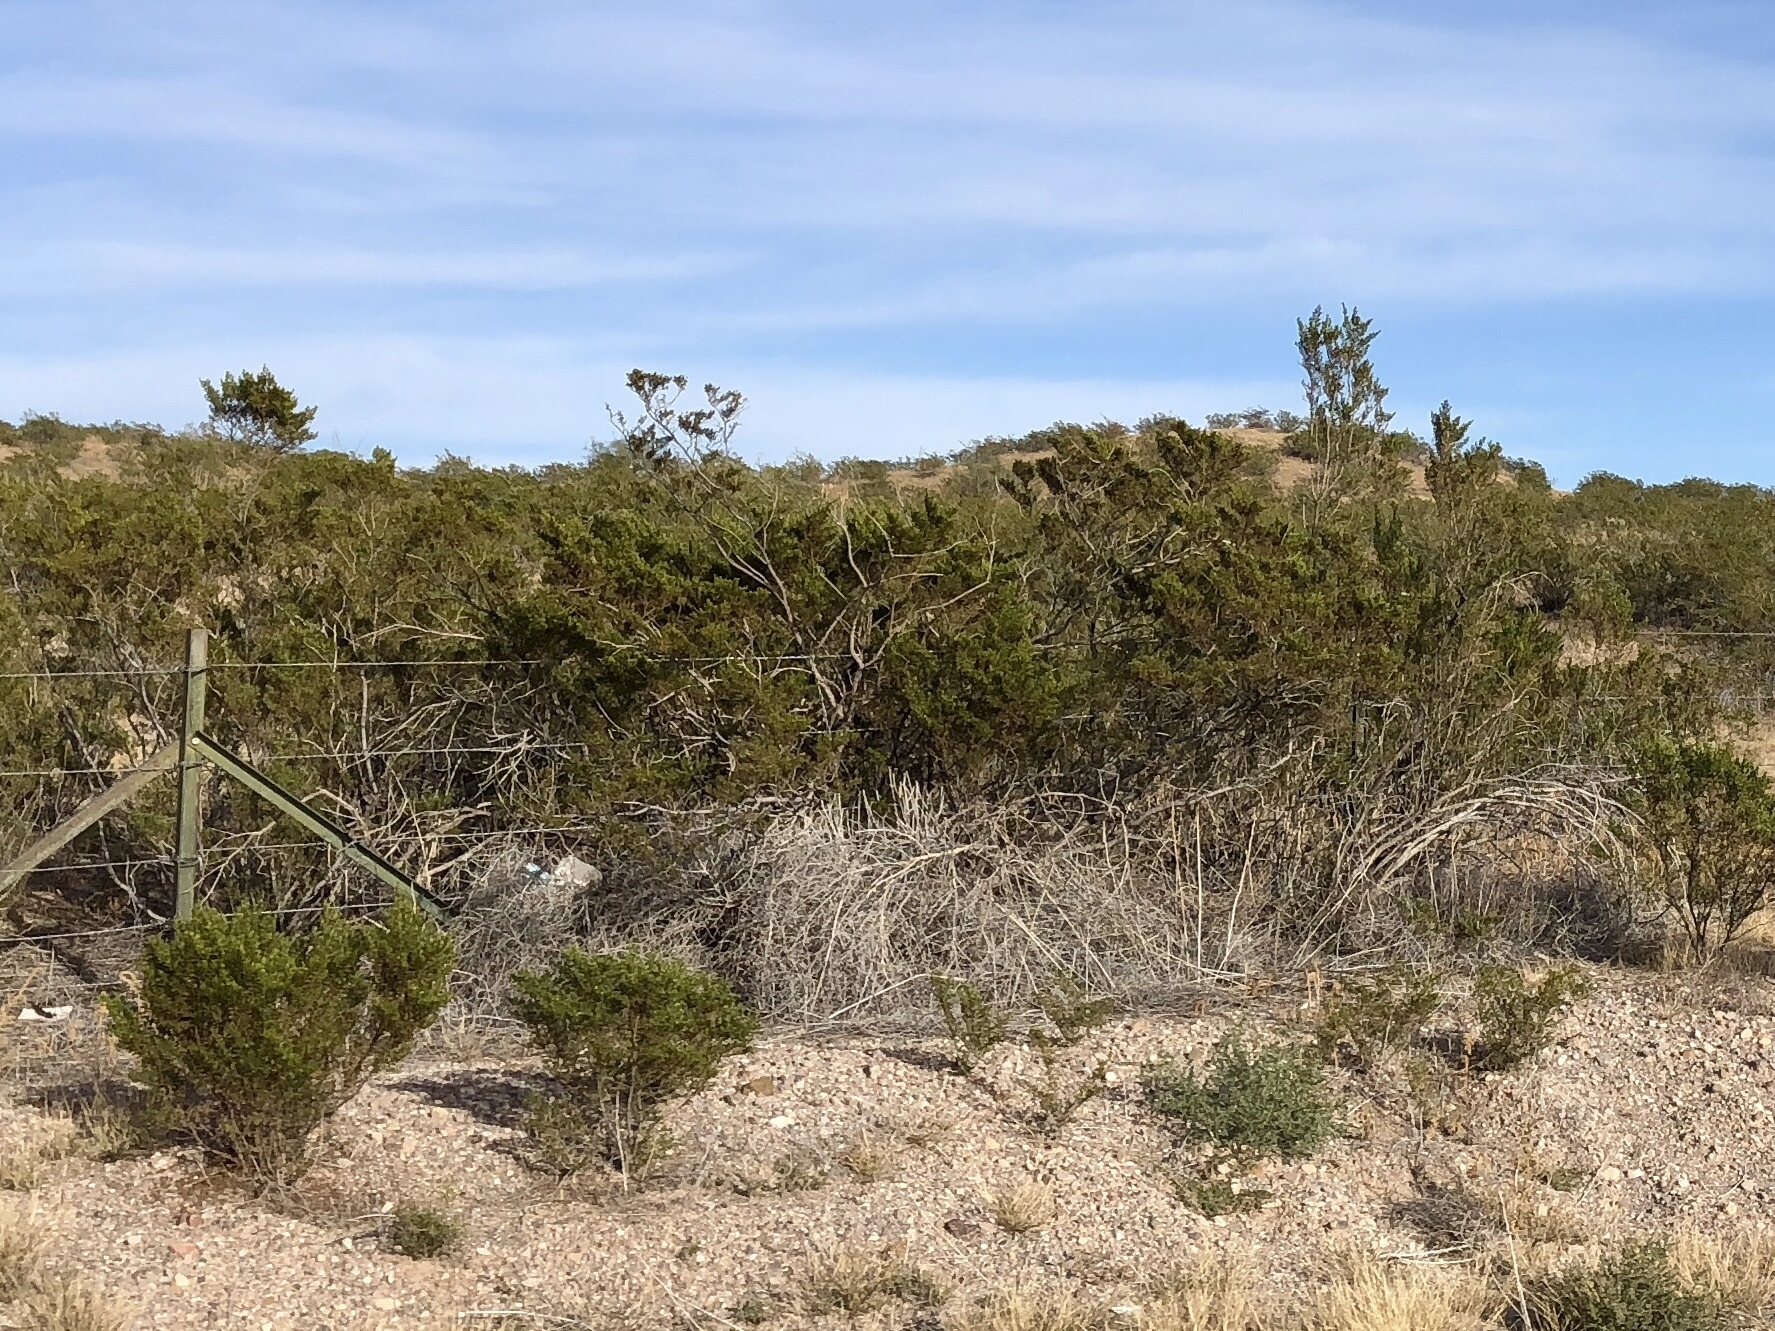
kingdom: Plantae
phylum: Tracheophyta
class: Magnoliopsida
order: Zygophyllales
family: Zygophyllaceae
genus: Larrea
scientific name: Larrea tridentata
